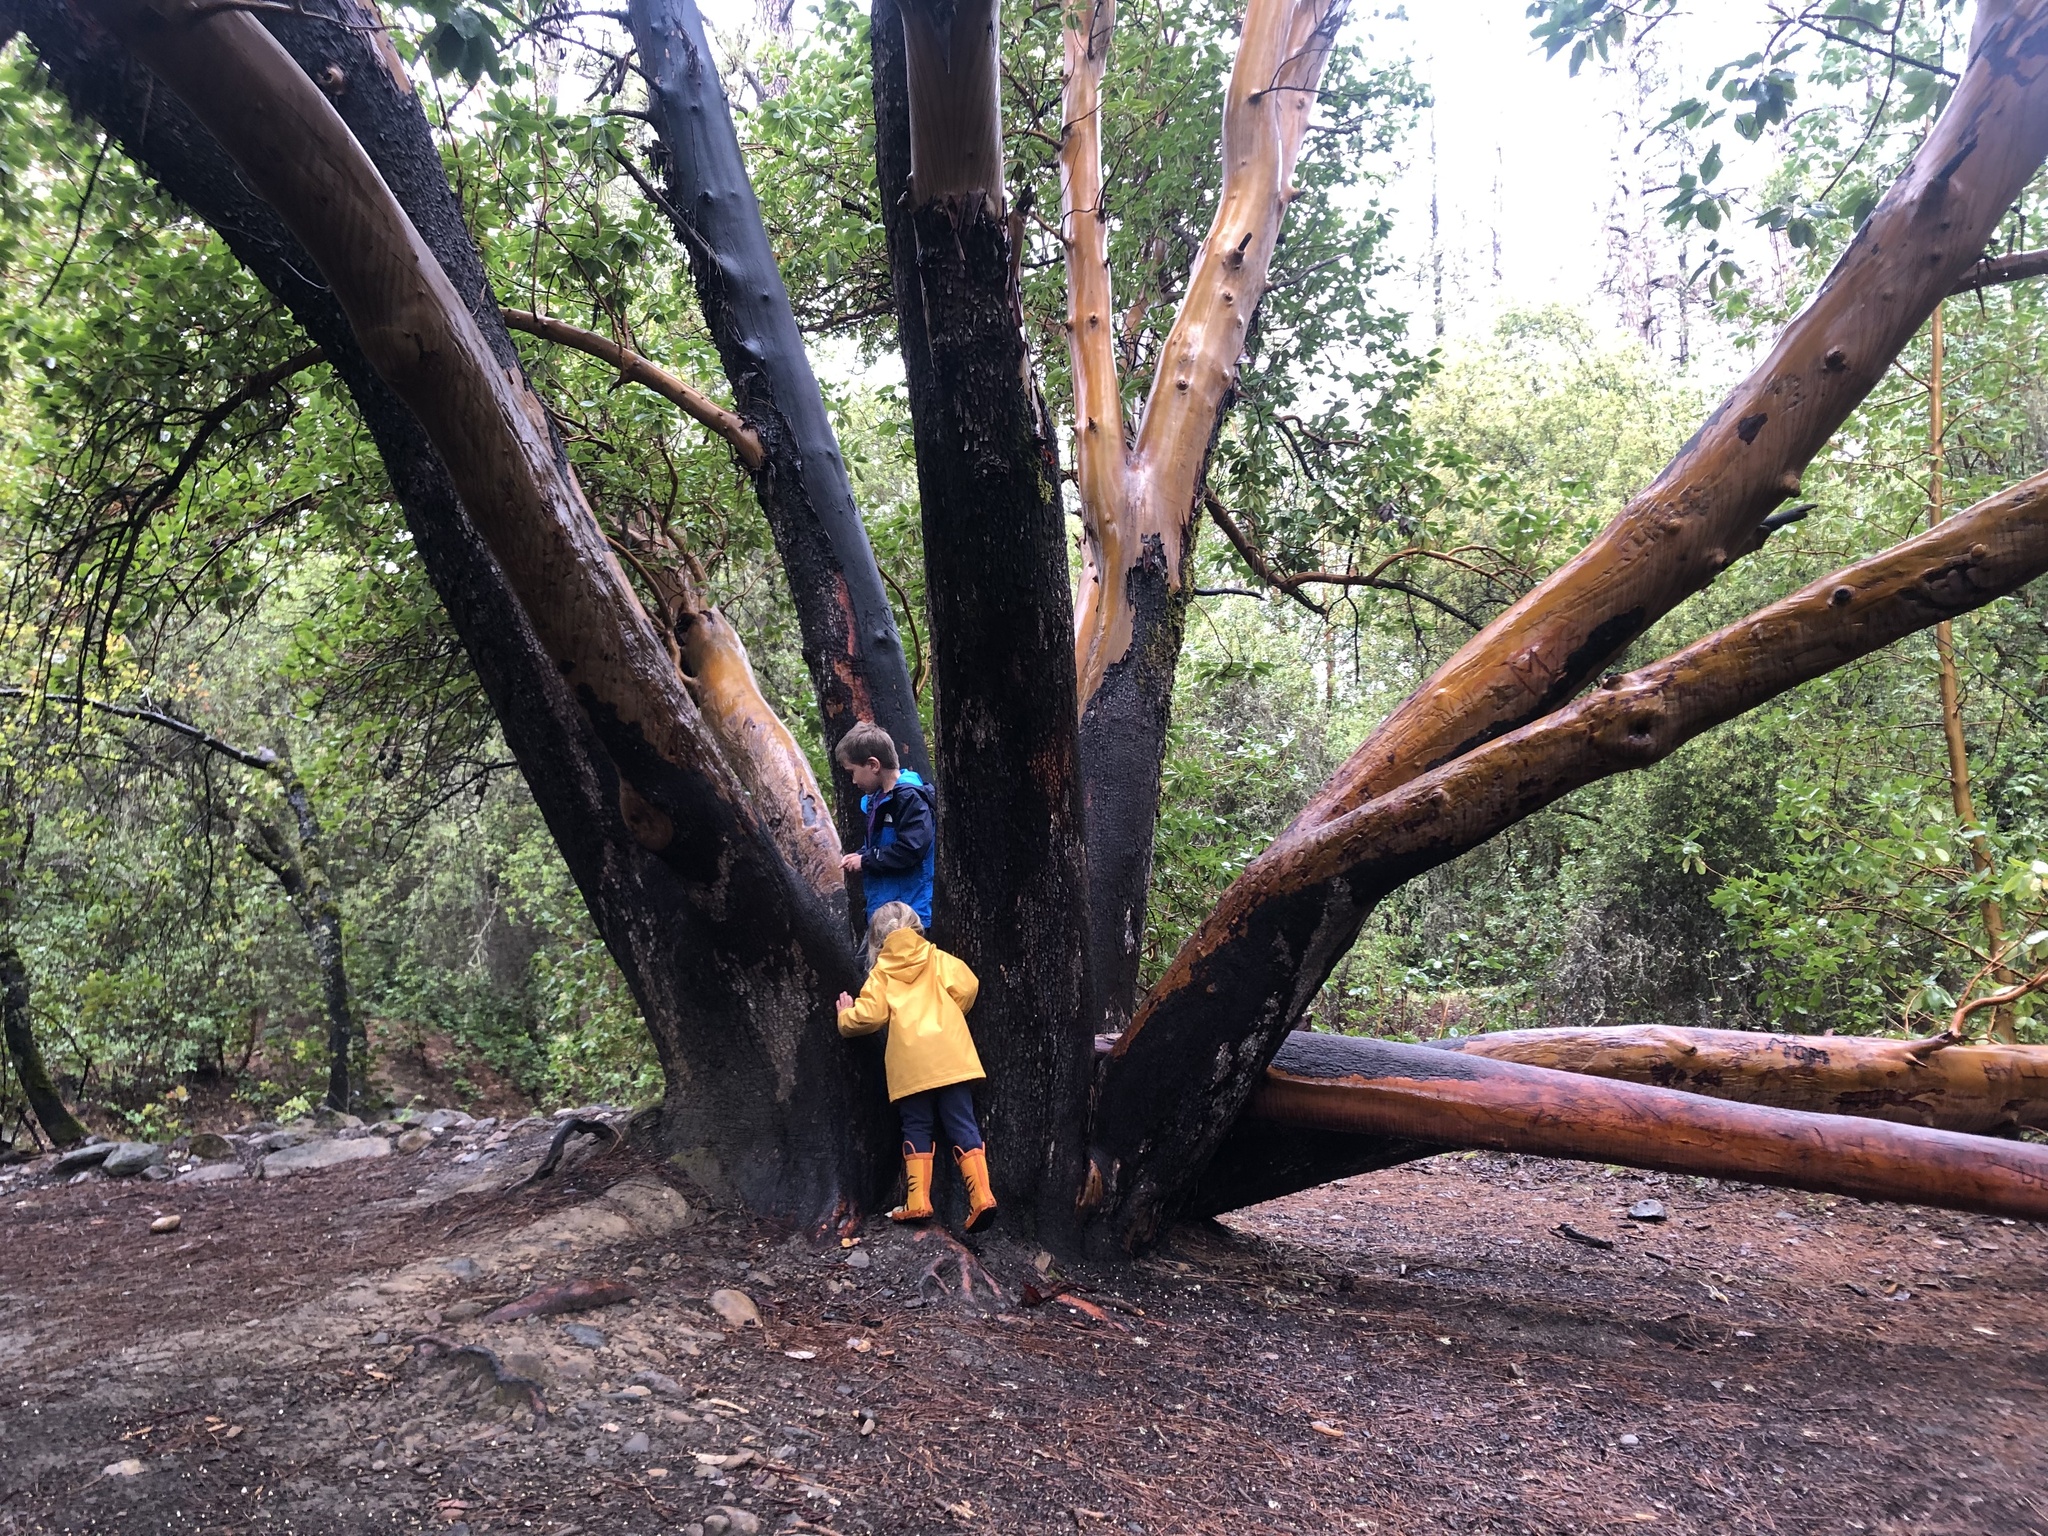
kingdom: Plantae
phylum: Tracheophyta
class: Magnoliopsida
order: Ericales
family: Ericaceae
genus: Arbutus
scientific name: Arbutus menziesii
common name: Pacific madrone
